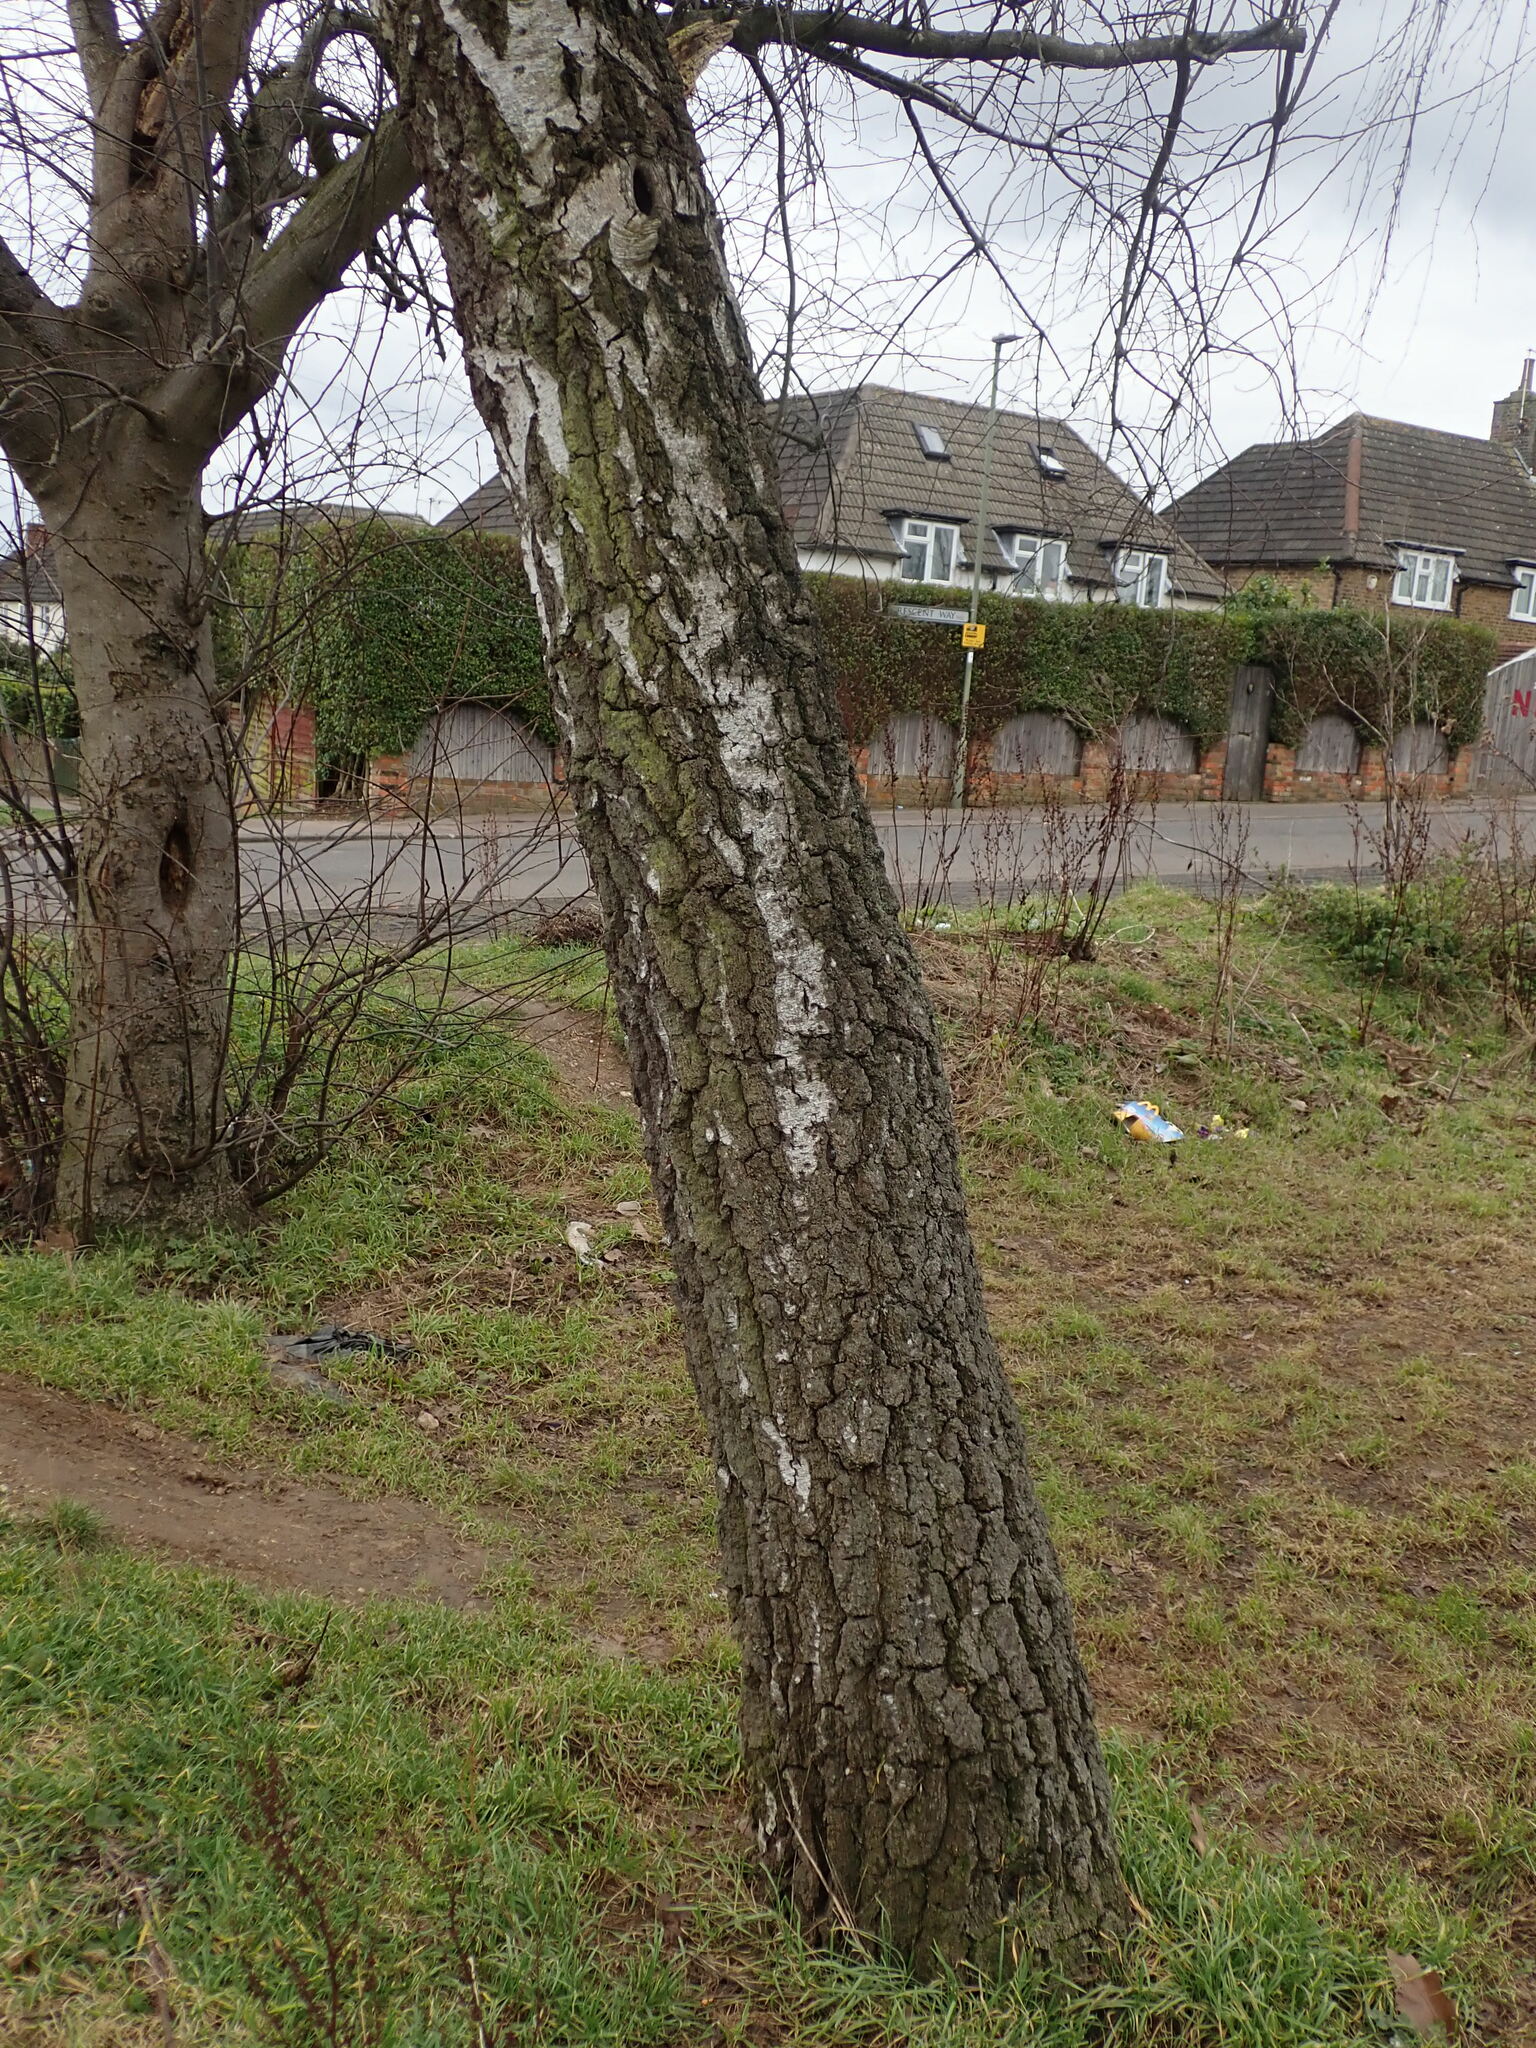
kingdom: Plantae
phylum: Tracheophyta
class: Magnoliopsida
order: Fagales
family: Betulaceae
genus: Betula
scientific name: Betula pendula
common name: Silver birch
